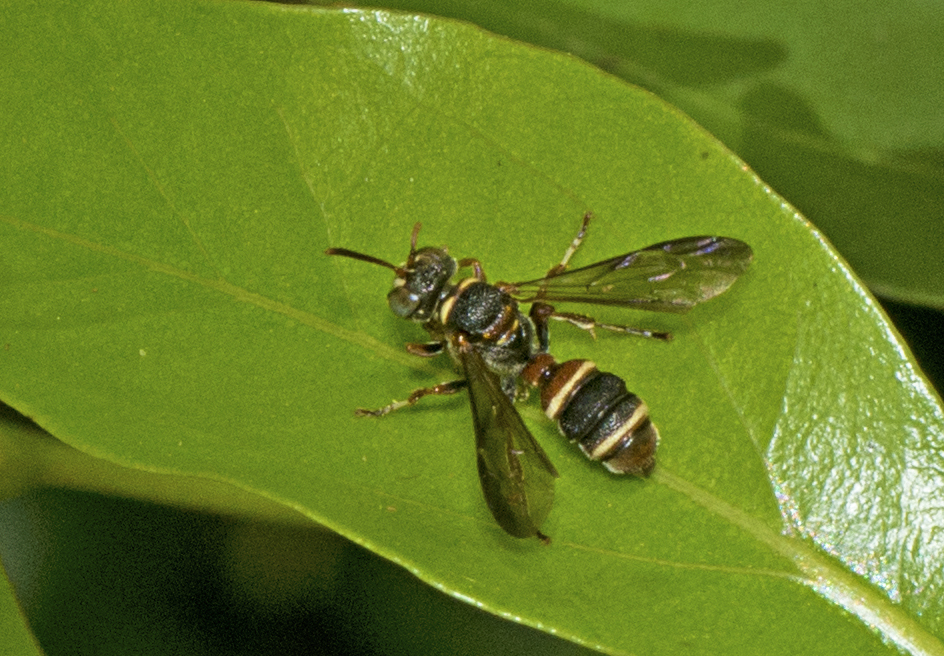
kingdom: Animalia
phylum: Arthropoda
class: Insecta
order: Hymenoptera
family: Crabronidae
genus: Cerceris
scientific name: Cerceris listrognatha
